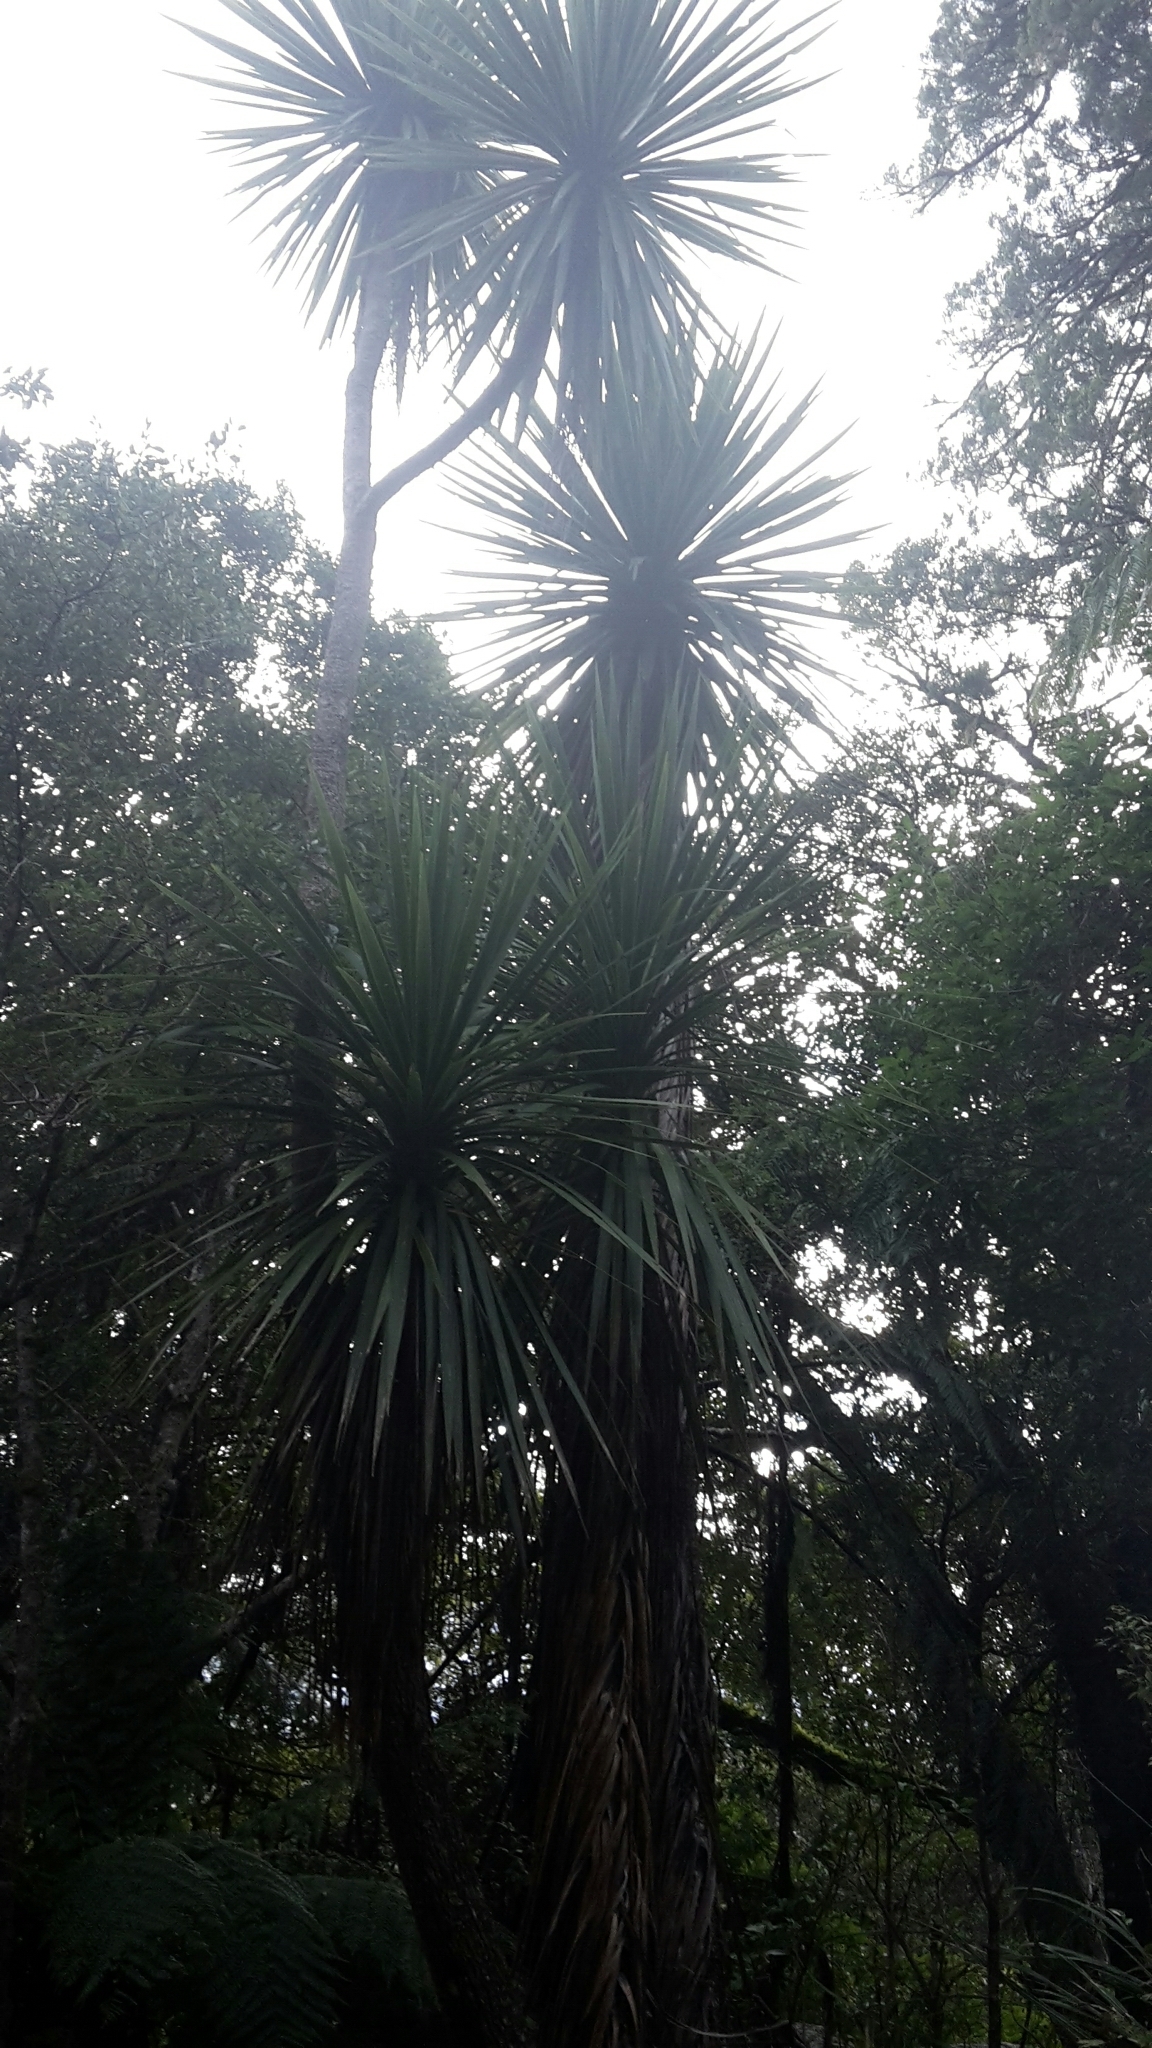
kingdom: Plantae
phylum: Tracheophyta
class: Liliopsida
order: Asparagales
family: Asparagaceae
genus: Cordyline
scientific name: Cordyline australis
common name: Cabbage-palm
